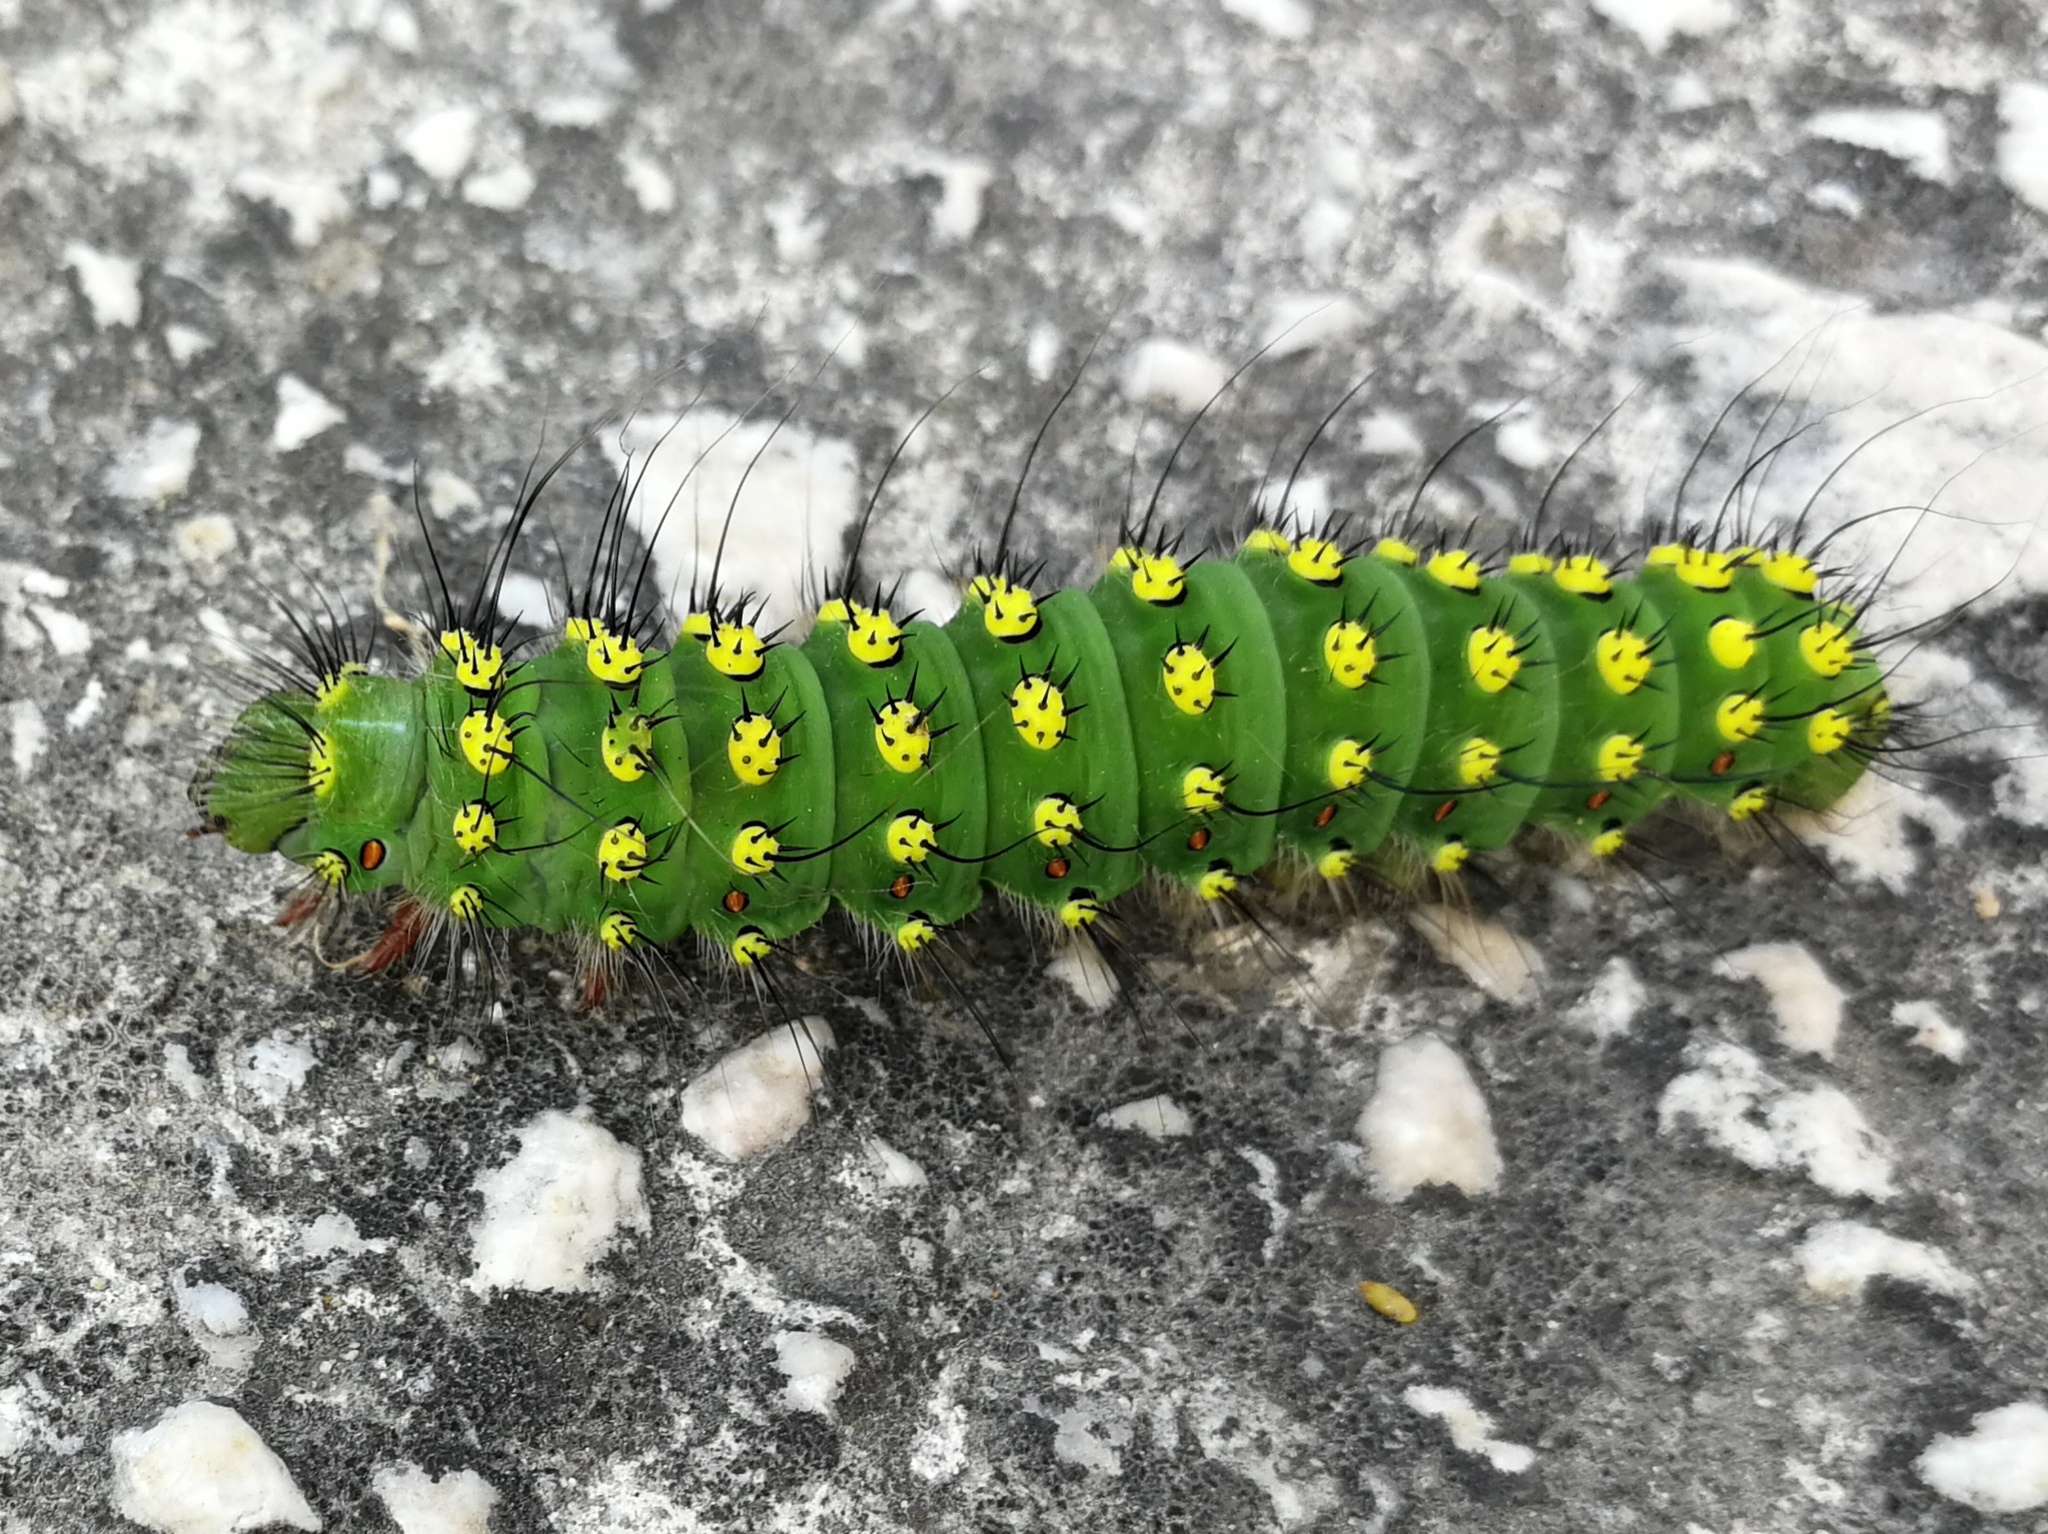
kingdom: Animalia
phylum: Arthropoda
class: Insecta
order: Lepidoptera
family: Saturniidae
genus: Saturnia
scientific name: Saturnia pavonia
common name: Emperor moth
